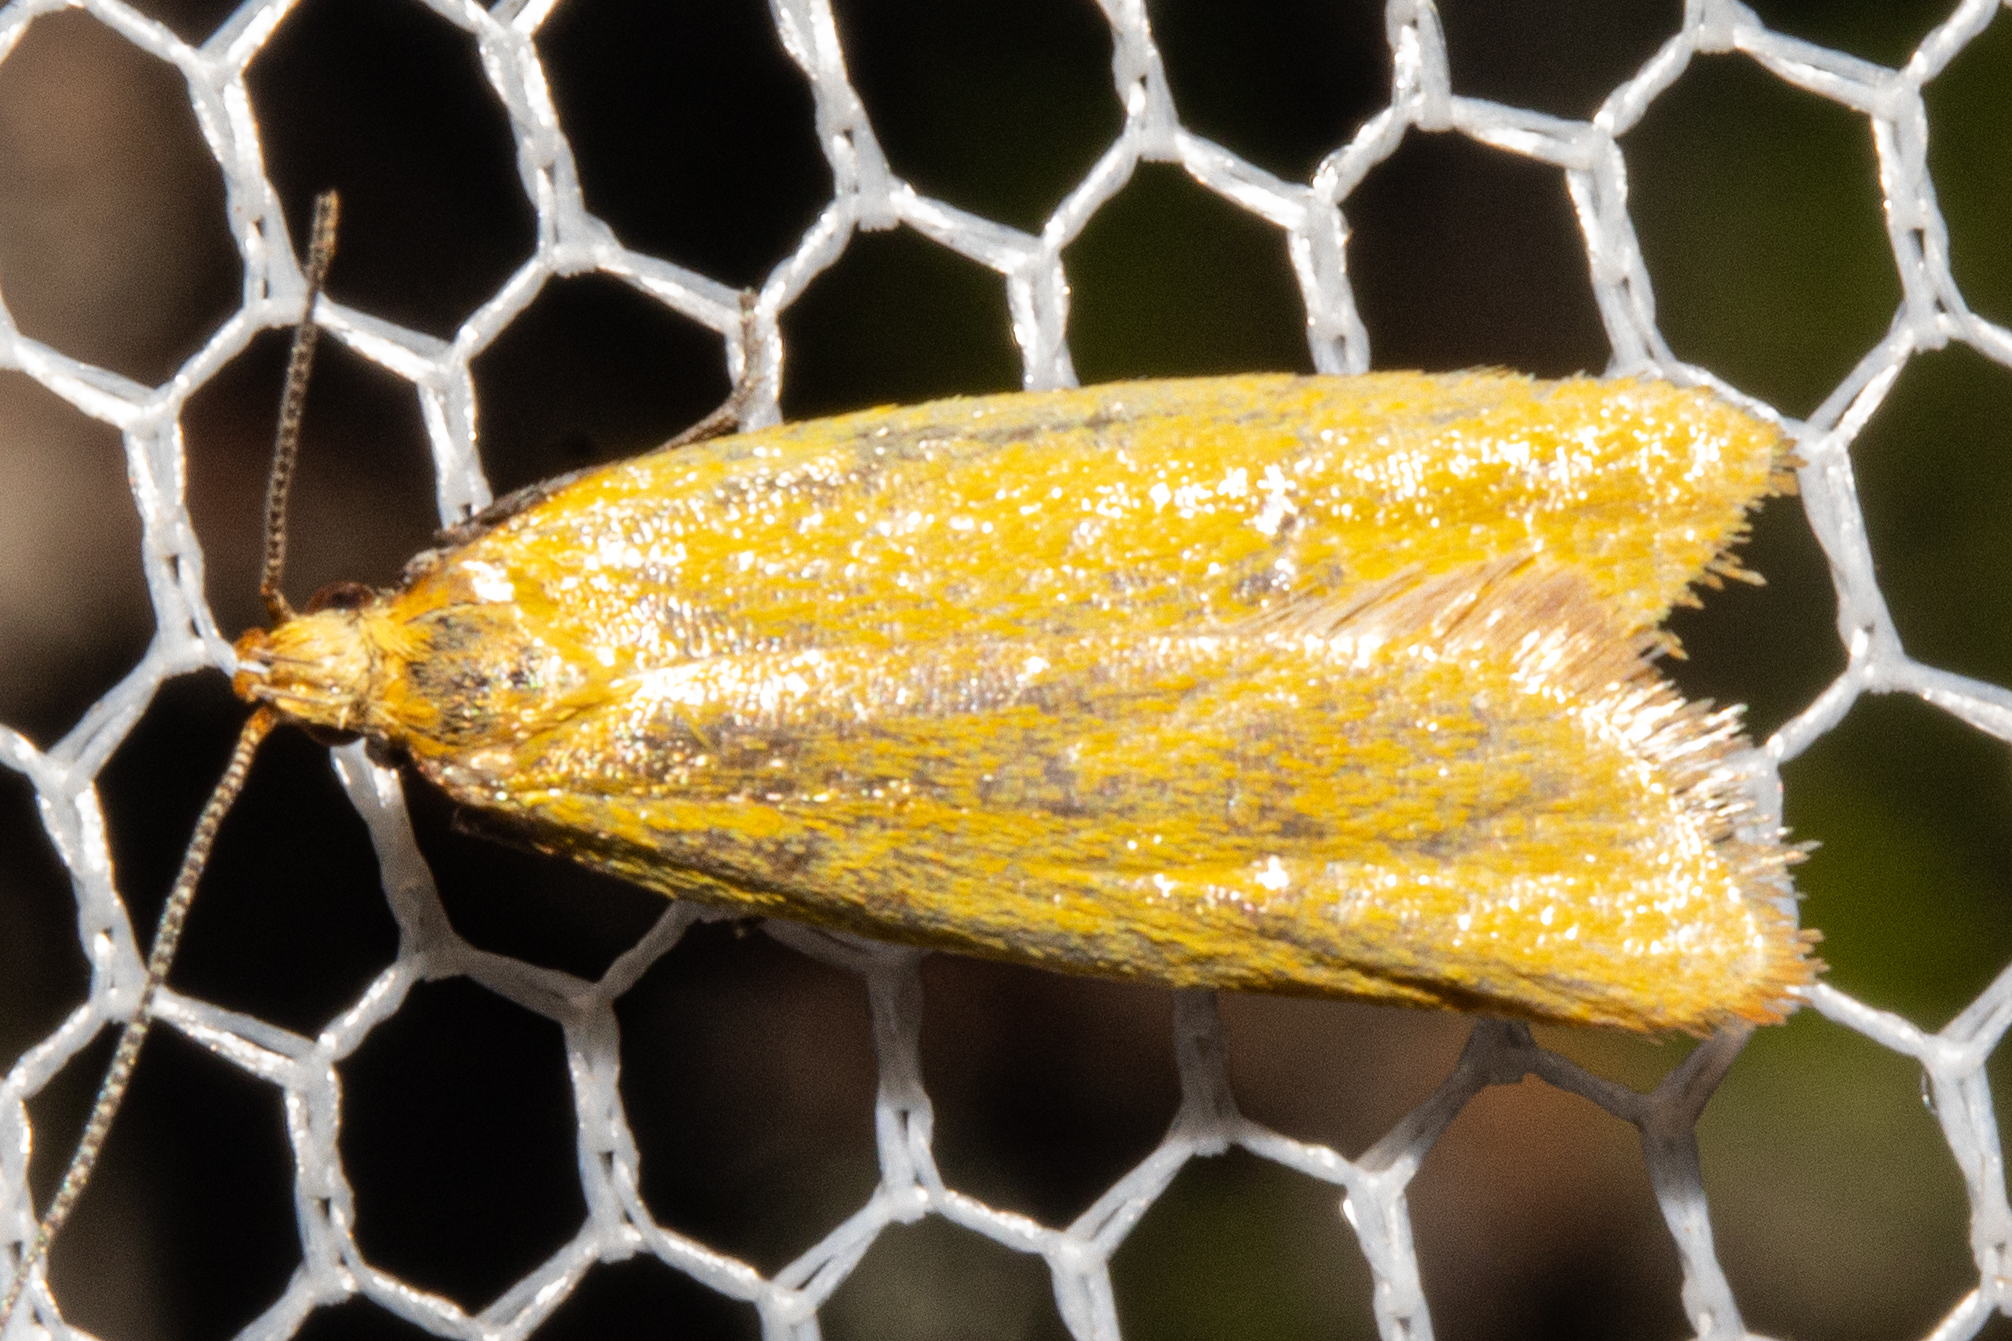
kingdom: Animalia
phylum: Arthropoda
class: Insecta
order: Lepidoptera
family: Oecophoridae
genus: Gymnobathra
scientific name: Gymnobathra parca
